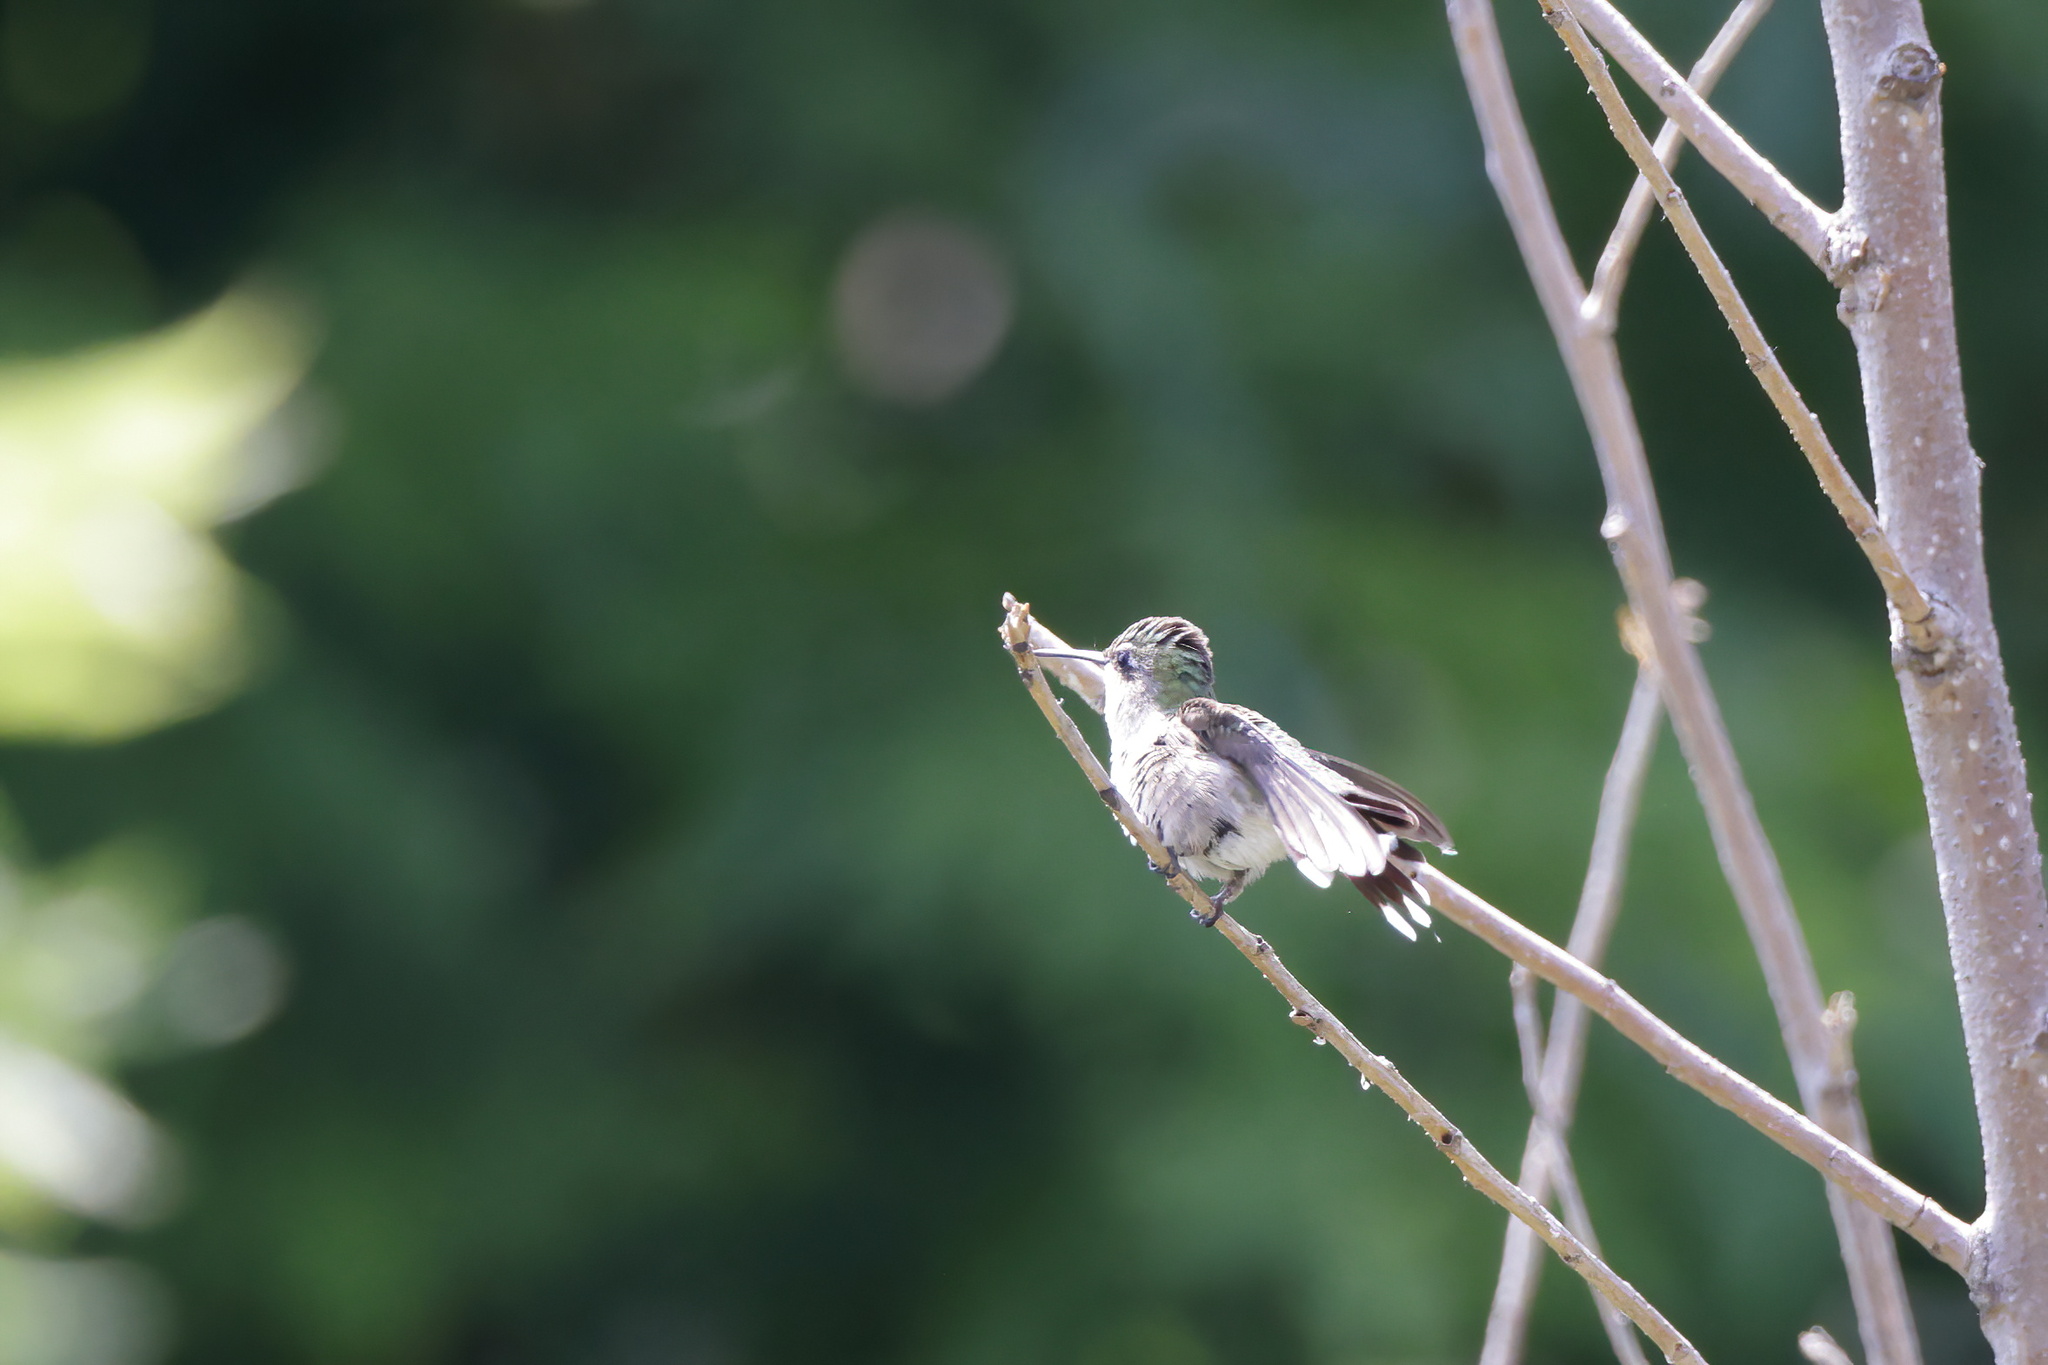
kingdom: Animalia
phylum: Chordata
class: Aves
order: Apodiformes
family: Trochilidae
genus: Archilochus
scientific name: Archilochus colubris
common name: Ruby-throated hummingbird
